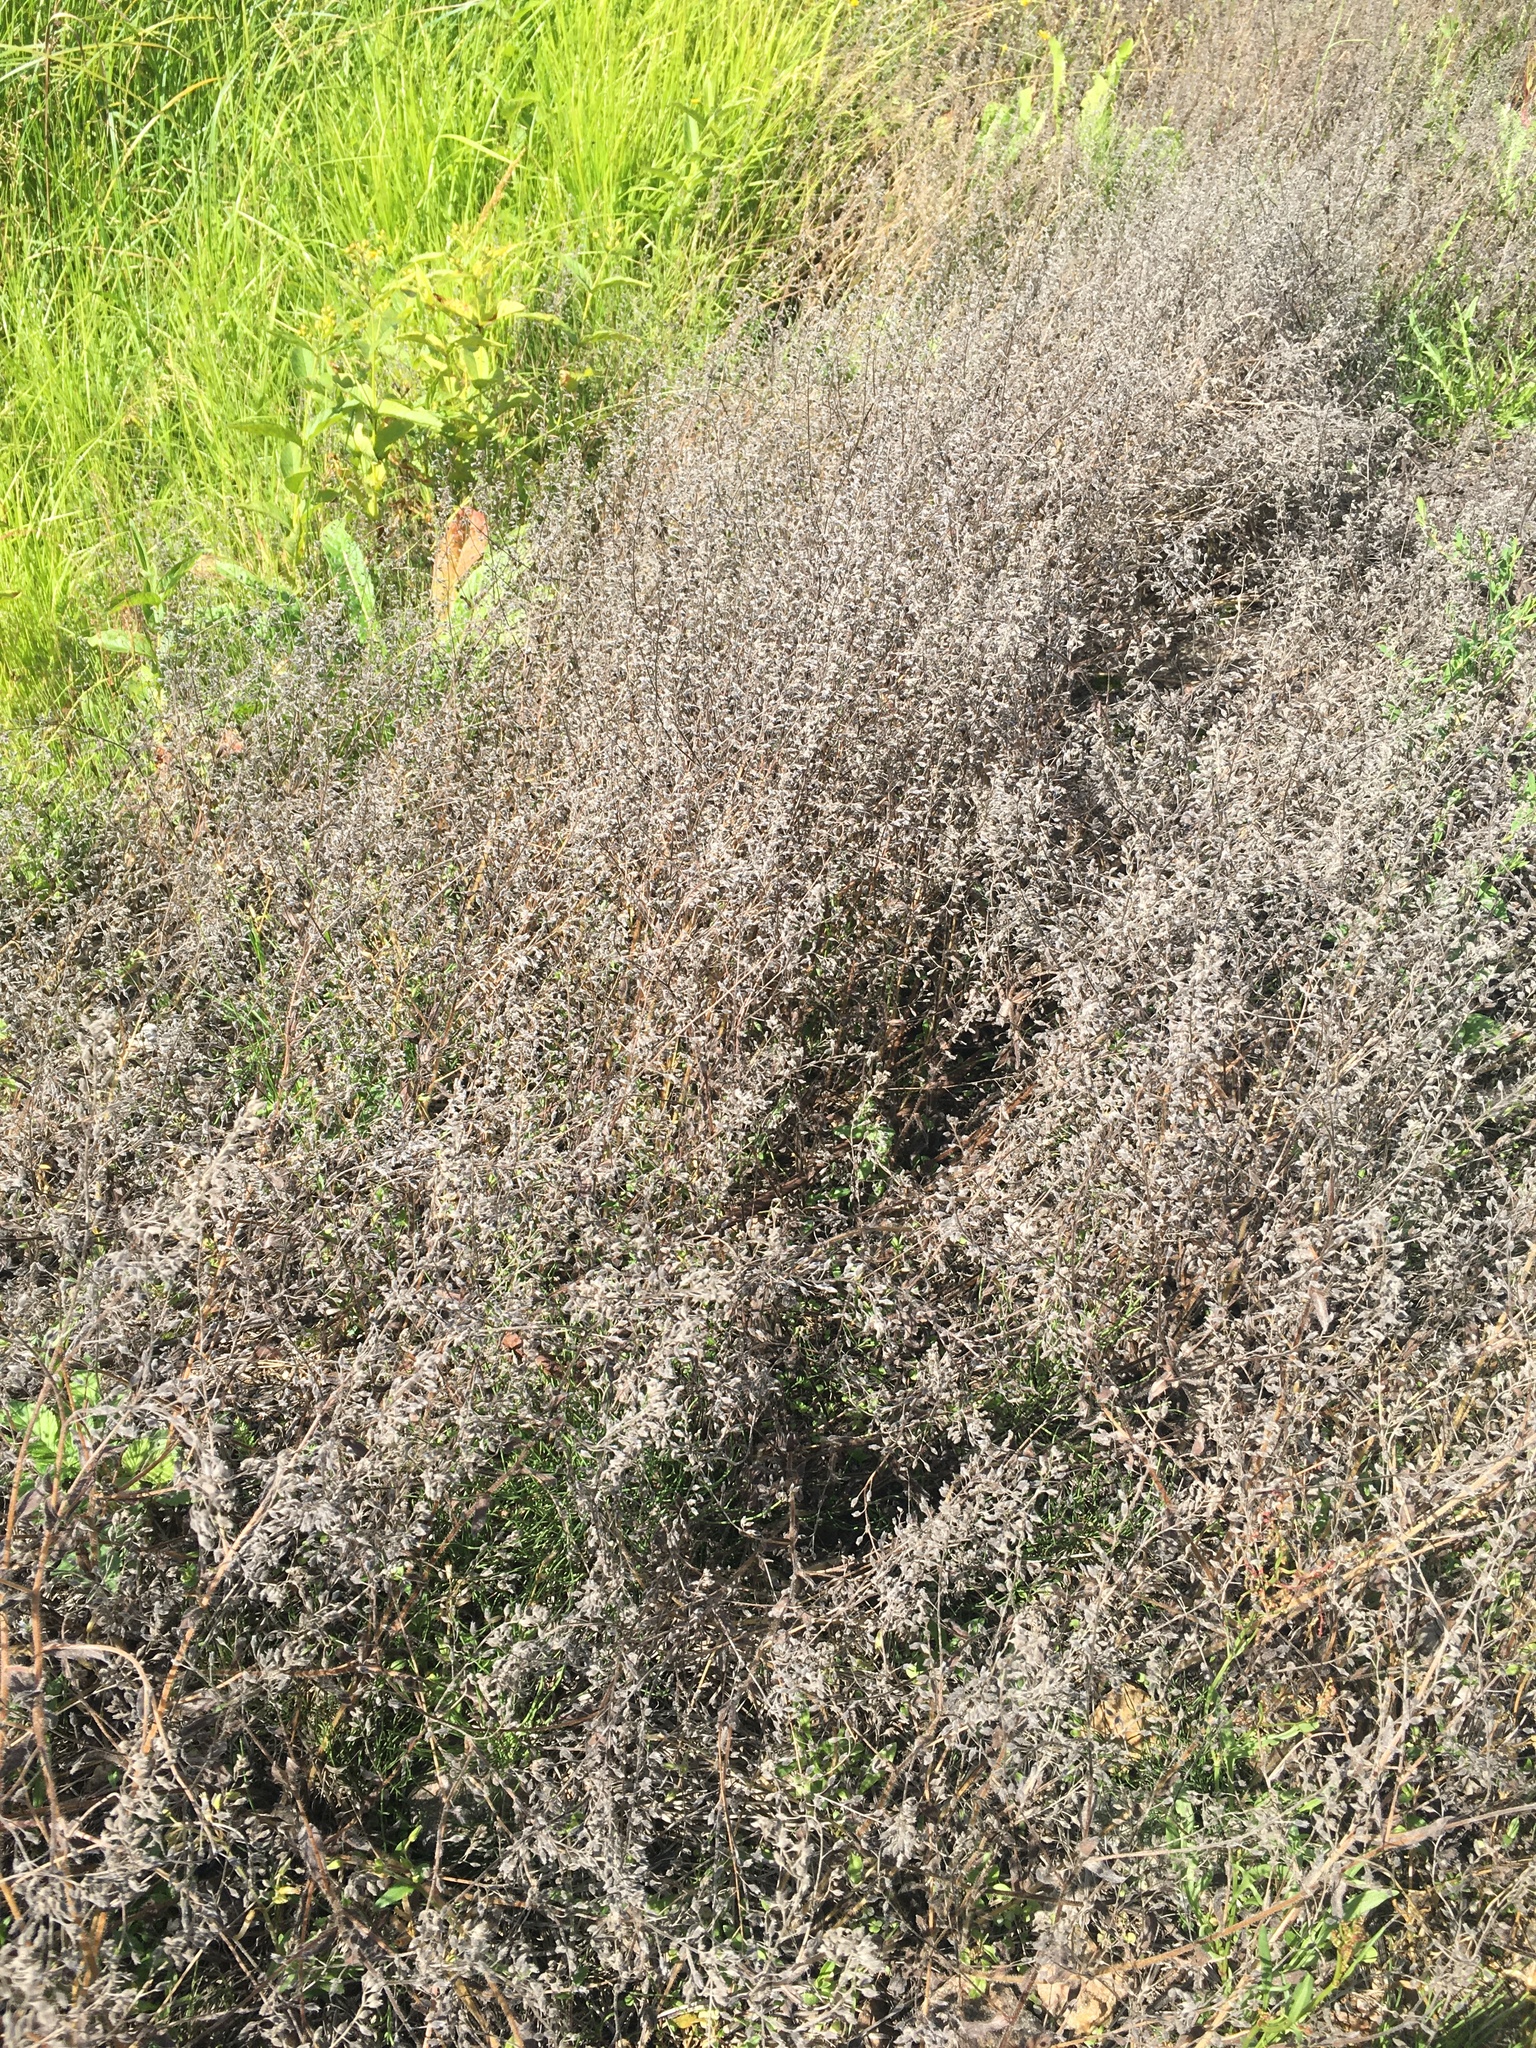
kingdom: Plantae
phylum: Tracheophyta
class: Magnoliopsida
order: Boraginales
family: Boraginaceae
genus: Myosotis
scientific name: Myosotis arvensis
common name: Field forget-me-not
